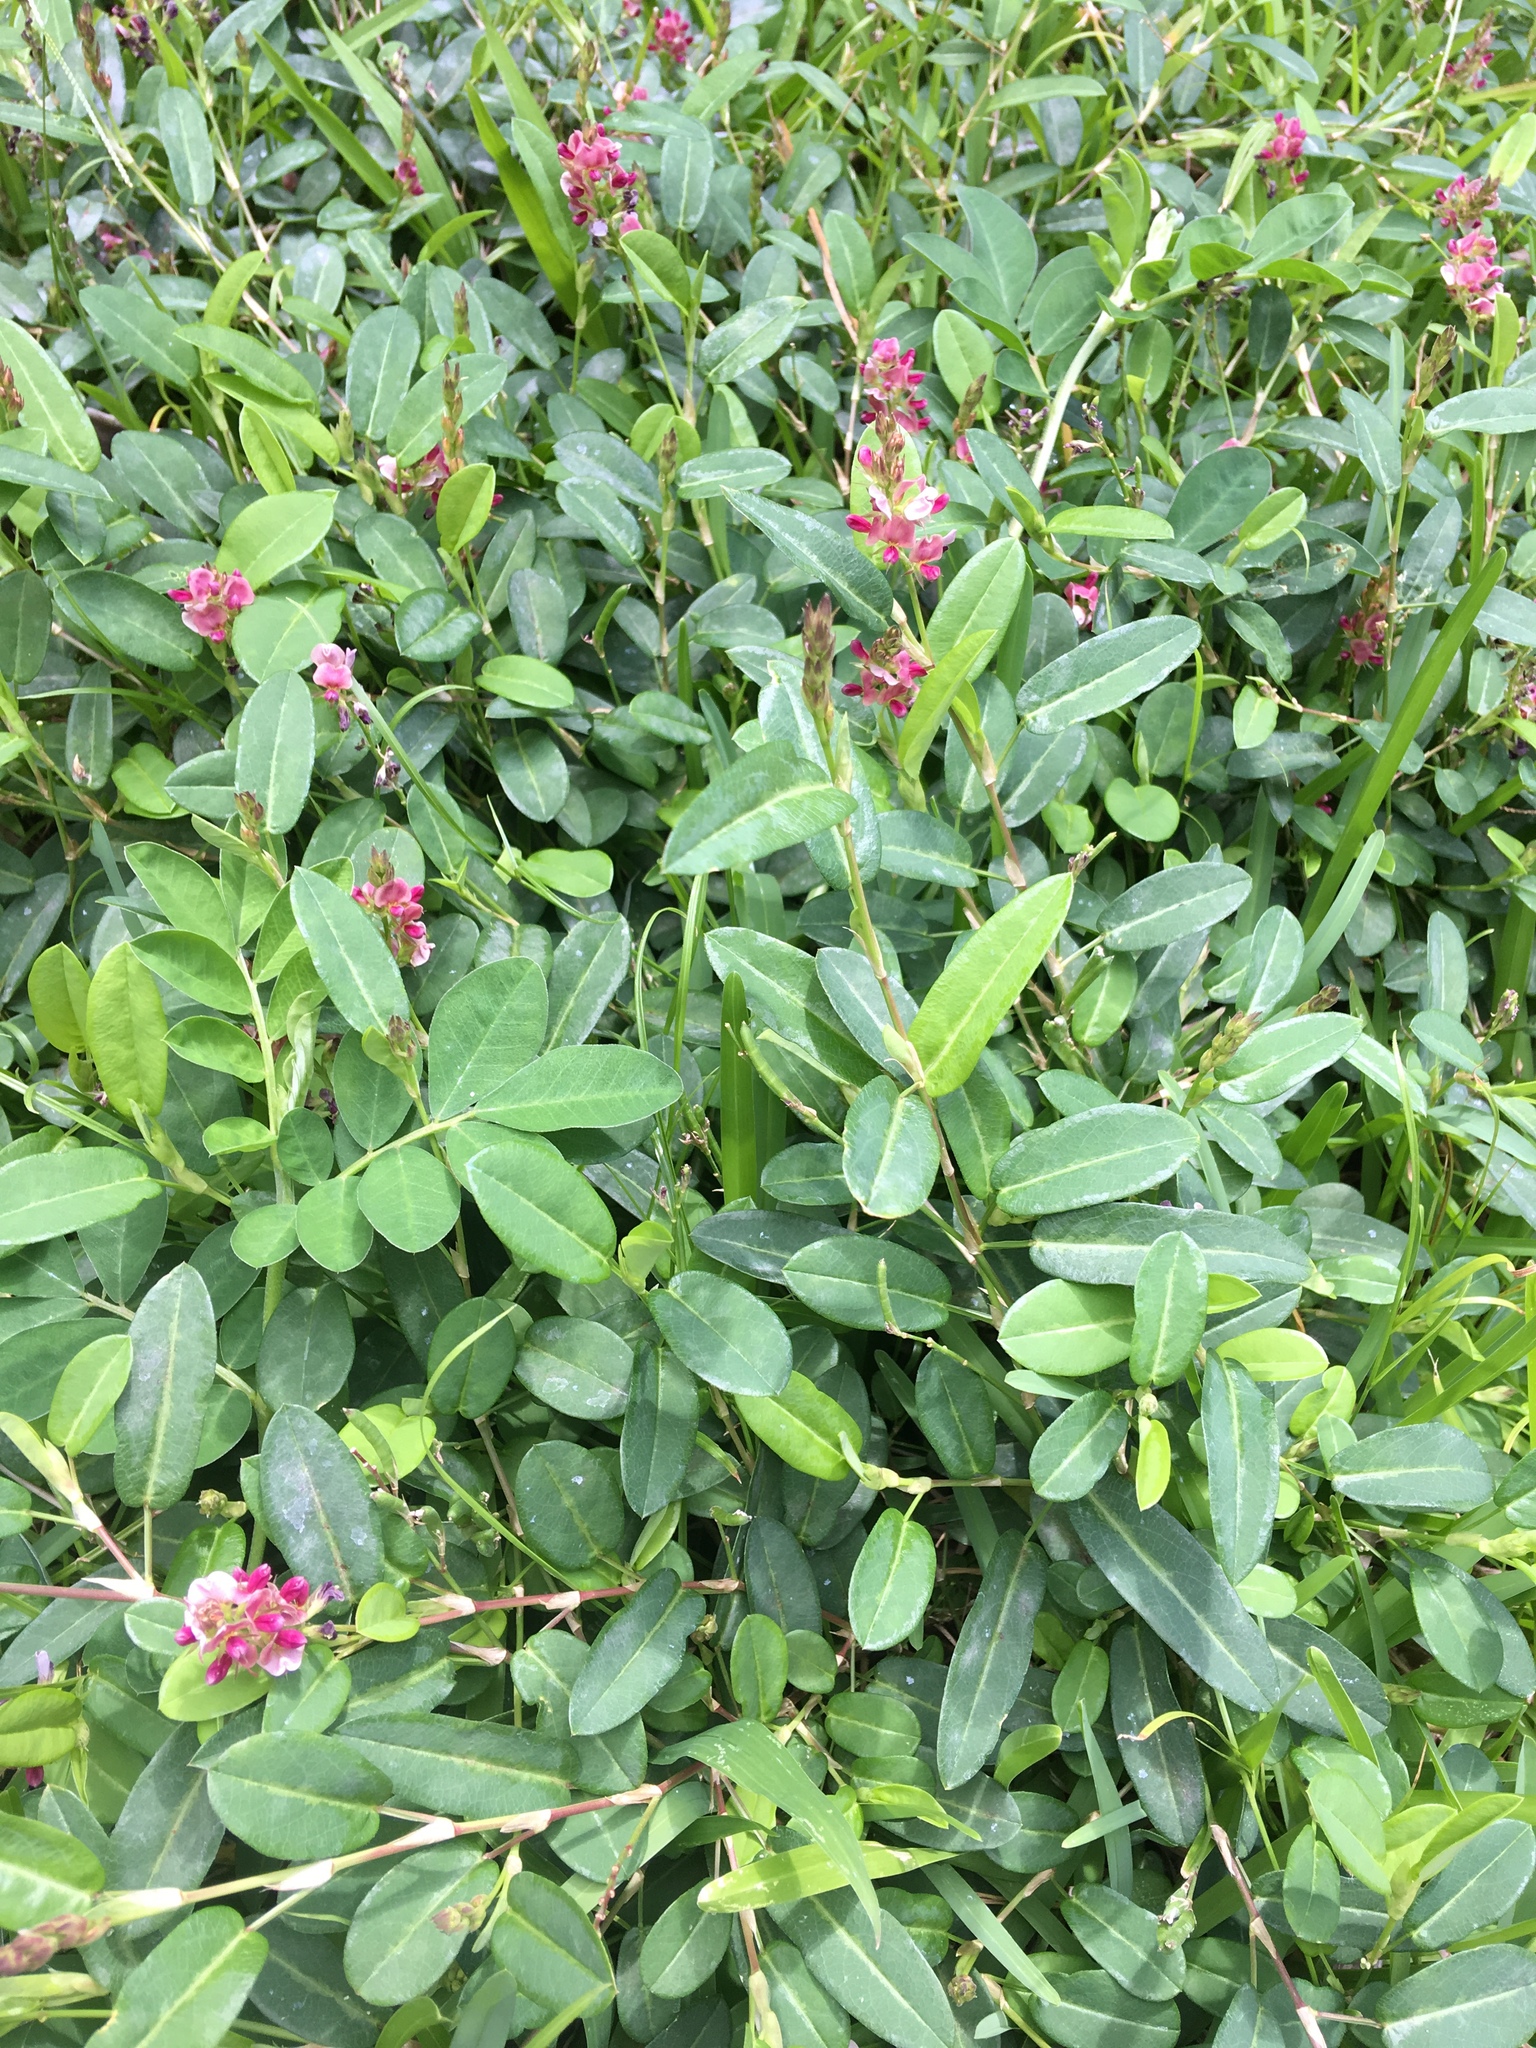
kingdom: Plantae
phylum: Tracheophyta
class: Magnoliopsida
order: Fabales
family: Fabaceae
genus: Alysicarpus
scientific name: Alysicarpus vaginalis
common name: White moneywort
